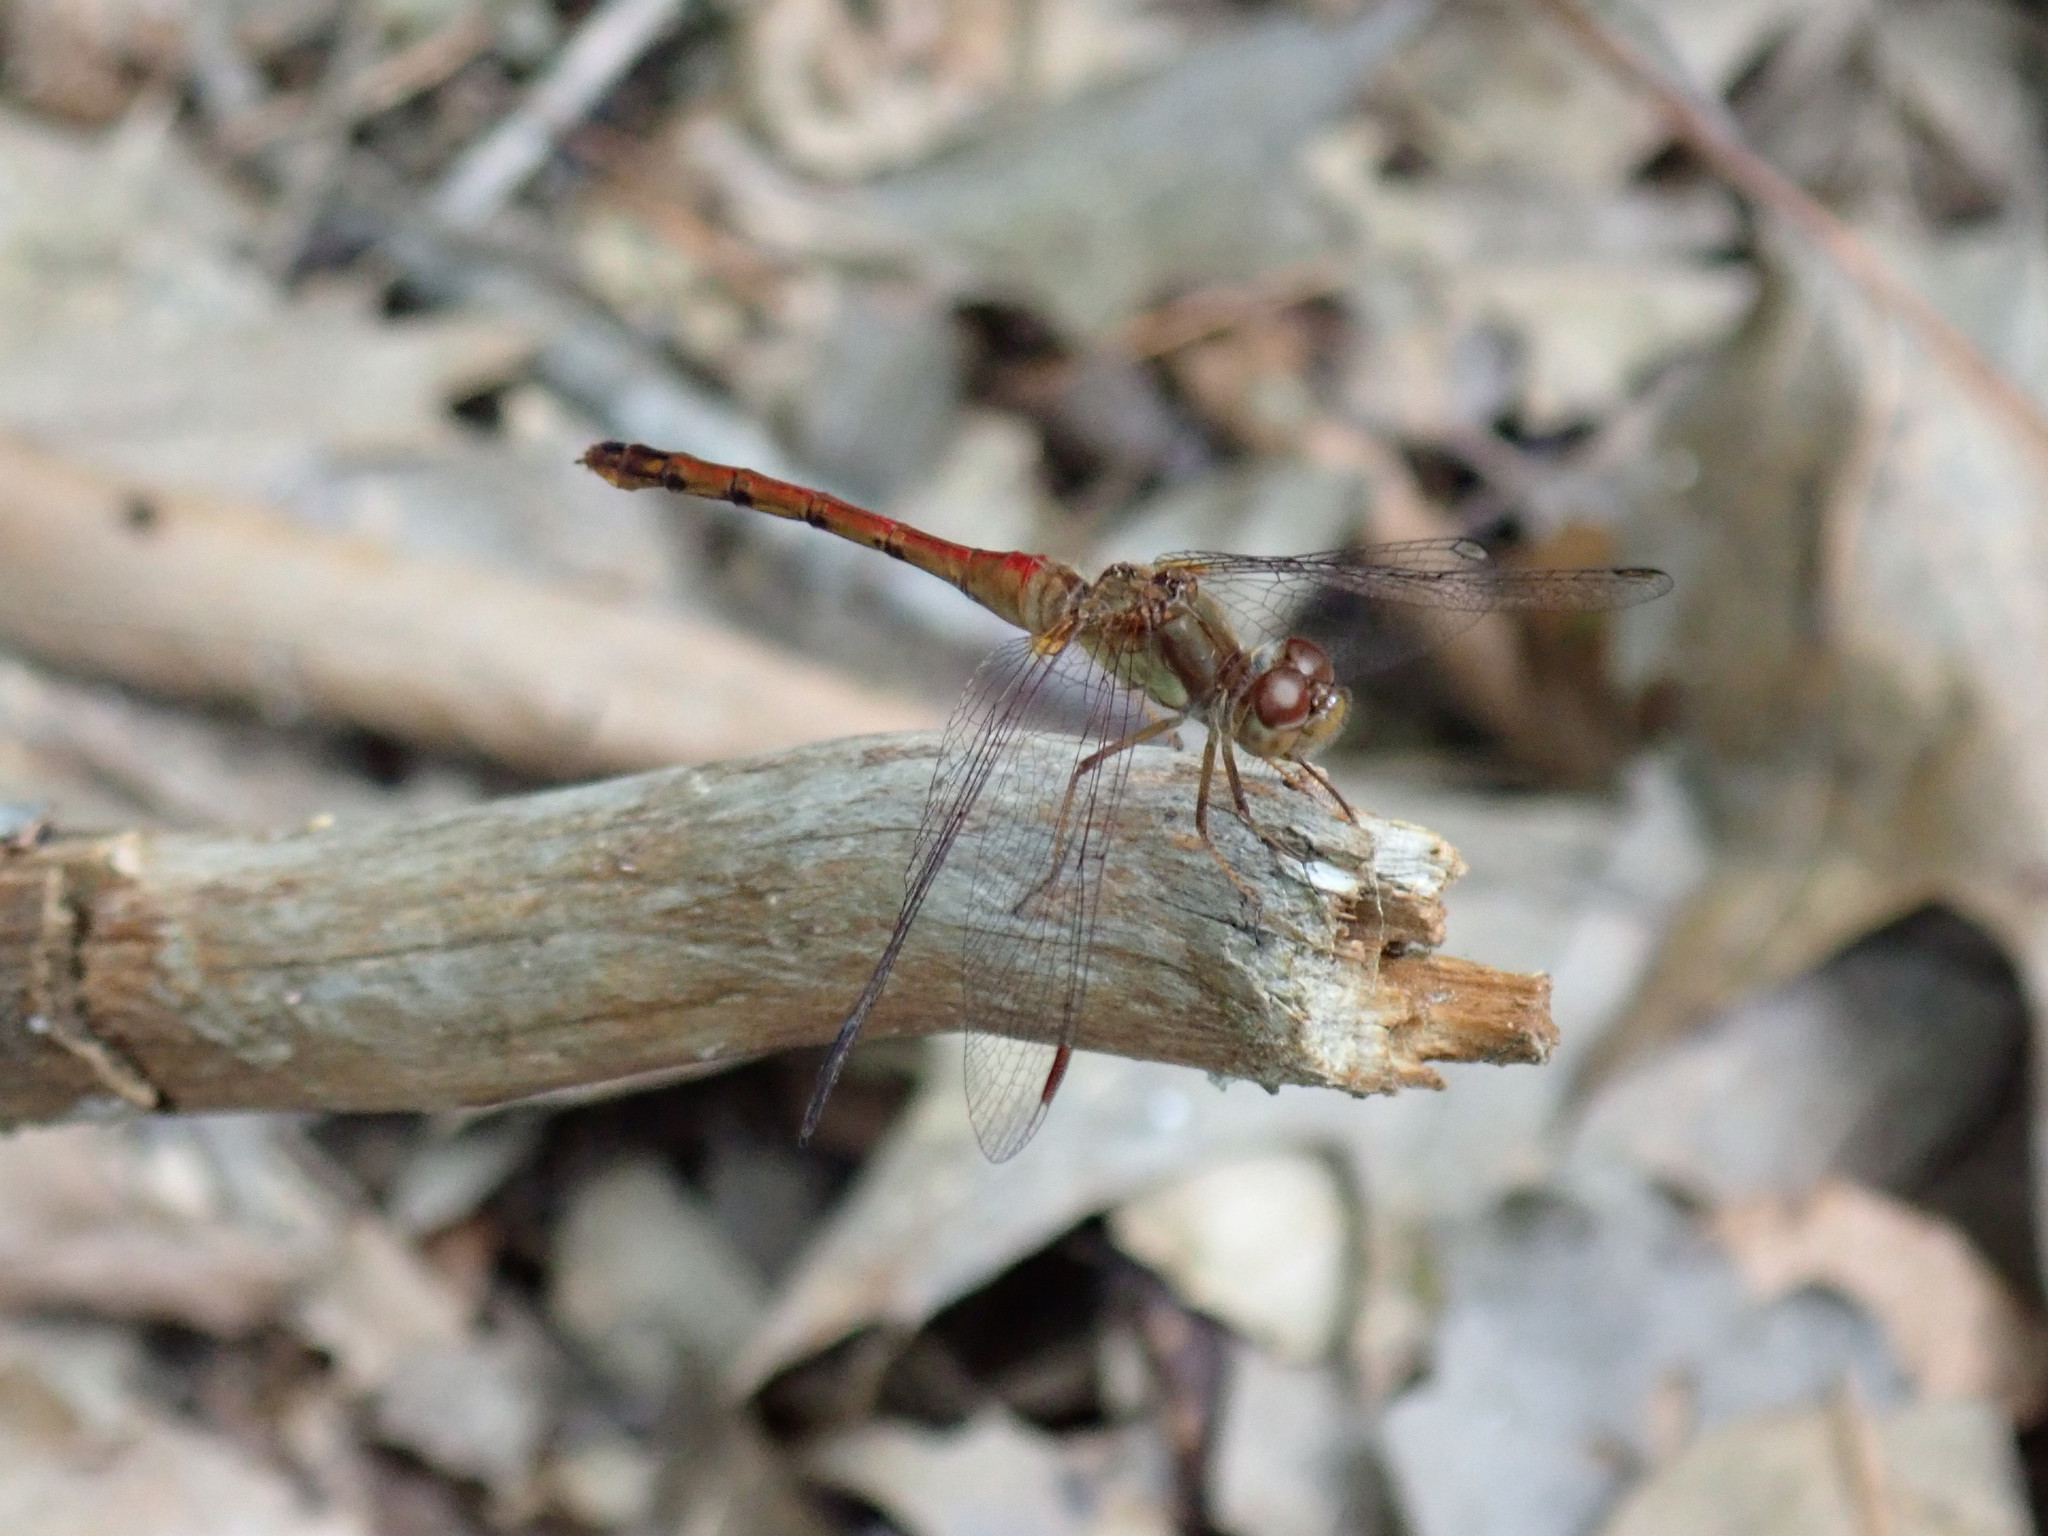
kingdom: Animalia
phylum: Arthropoda
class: Insecta
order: Odonata
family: Libellulidae
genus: Sympetrum
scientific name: Sympetrum vicinum
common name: Autumn meadowhawk
